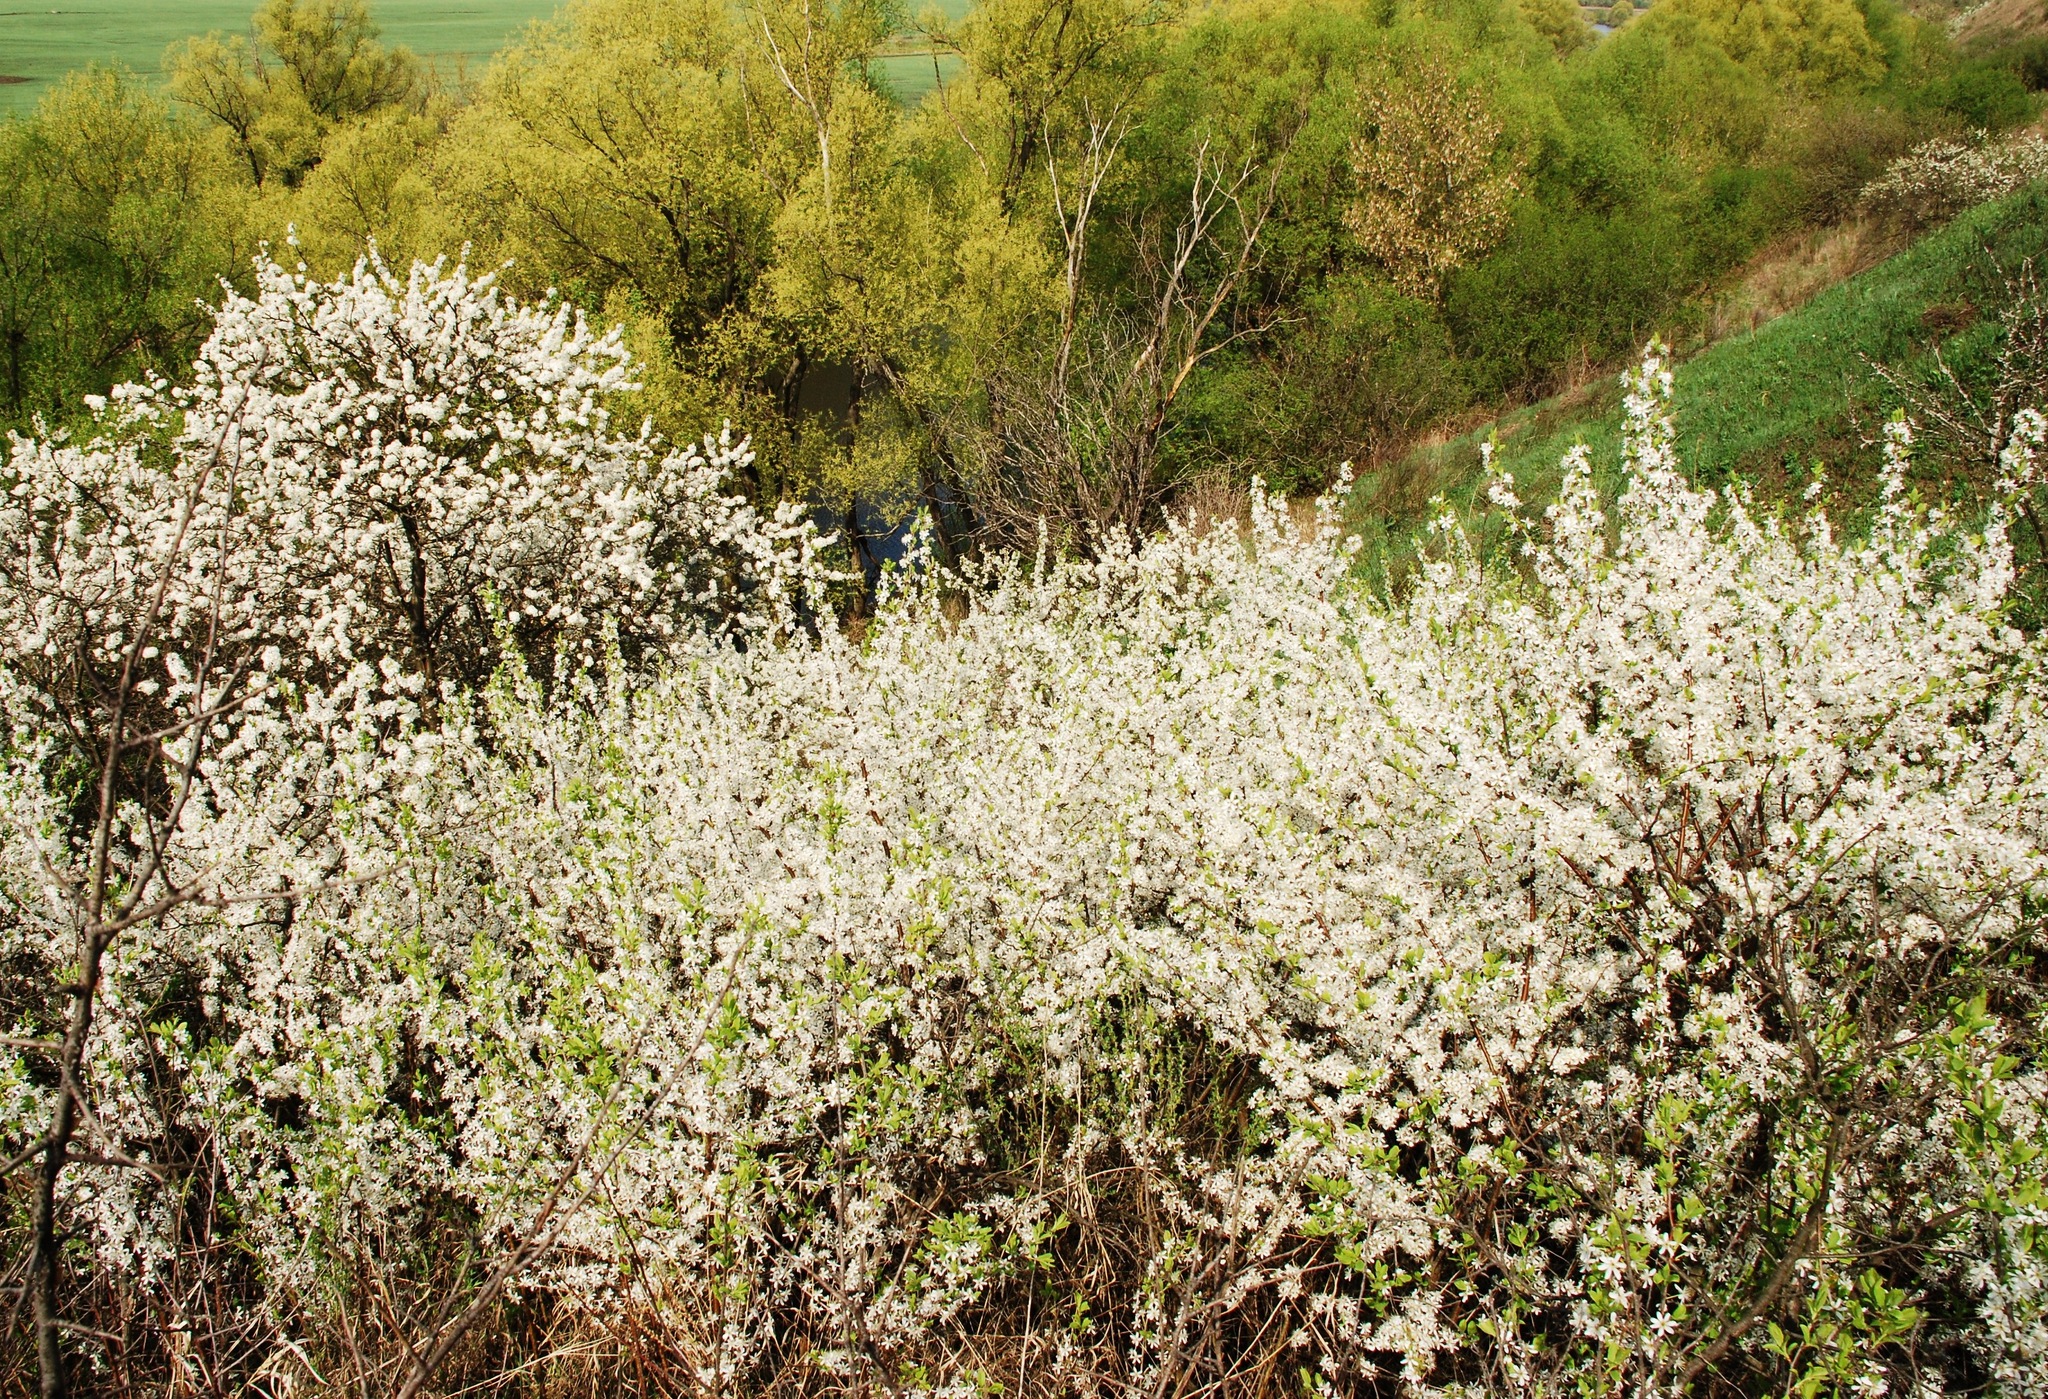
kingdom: Plantae
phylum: Tracheophyta
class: Magnoliopsida
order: Rosales
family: Rosaceae
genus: Prunus
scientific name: Prunus spinosa
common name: Blackthorn
